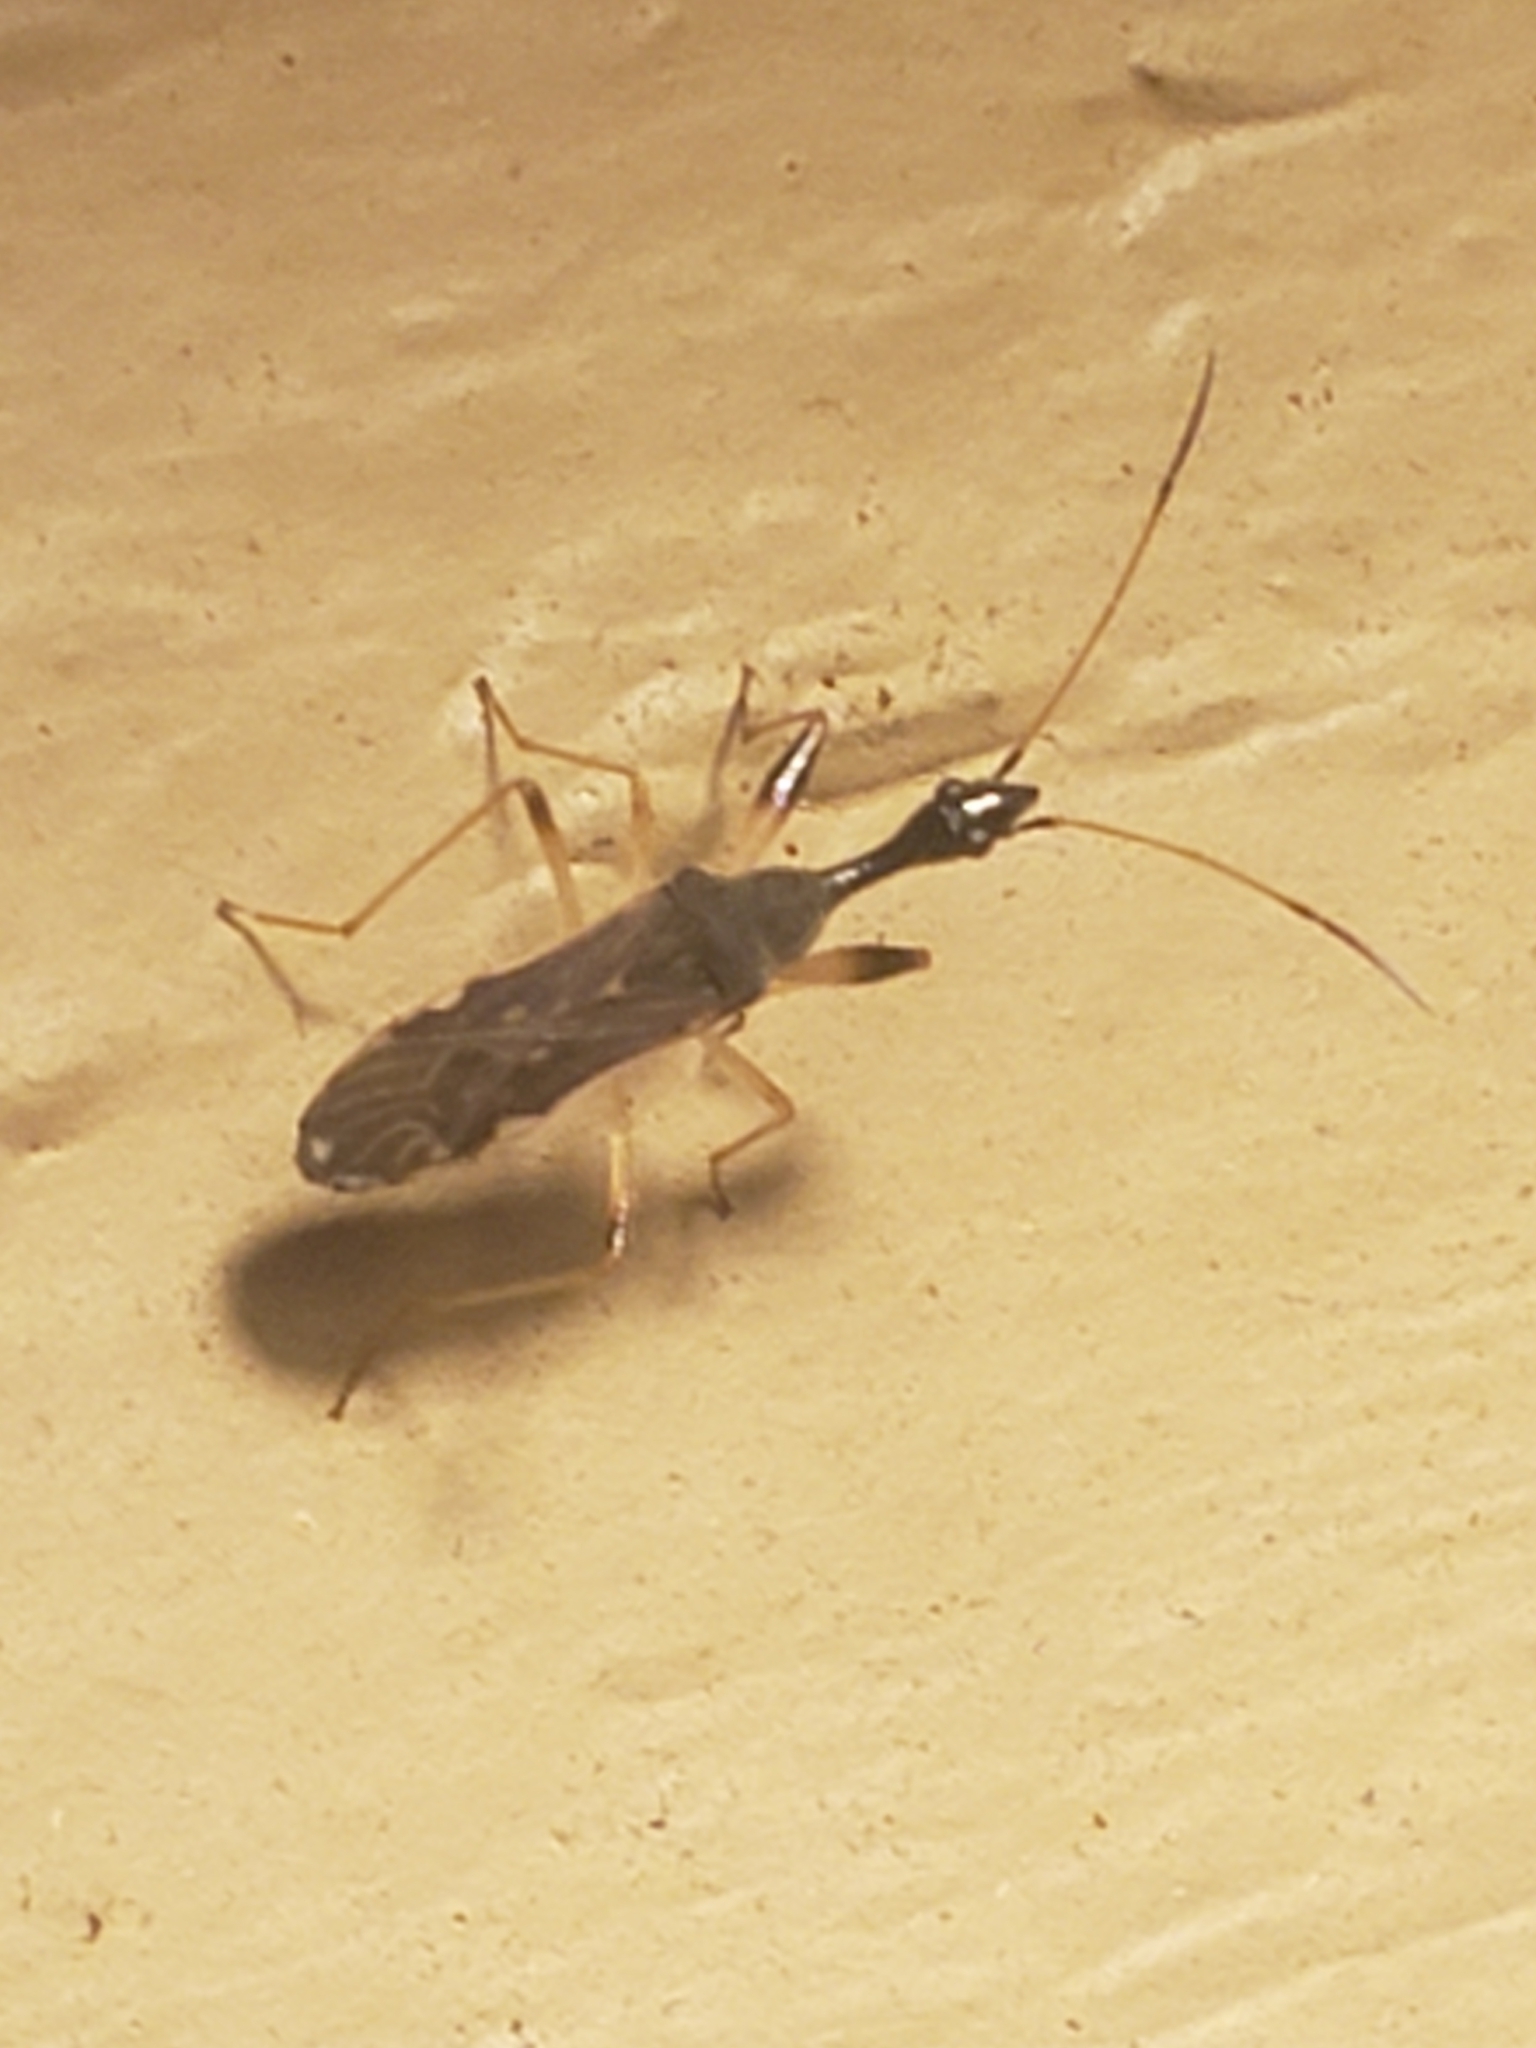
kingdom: Animalia
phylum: Arthropoda
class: Insecta
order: Hemiptera
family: Rhyparochromidae
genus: Myodocha
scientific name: Myodocha serripes
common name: Long-necked seed bug
